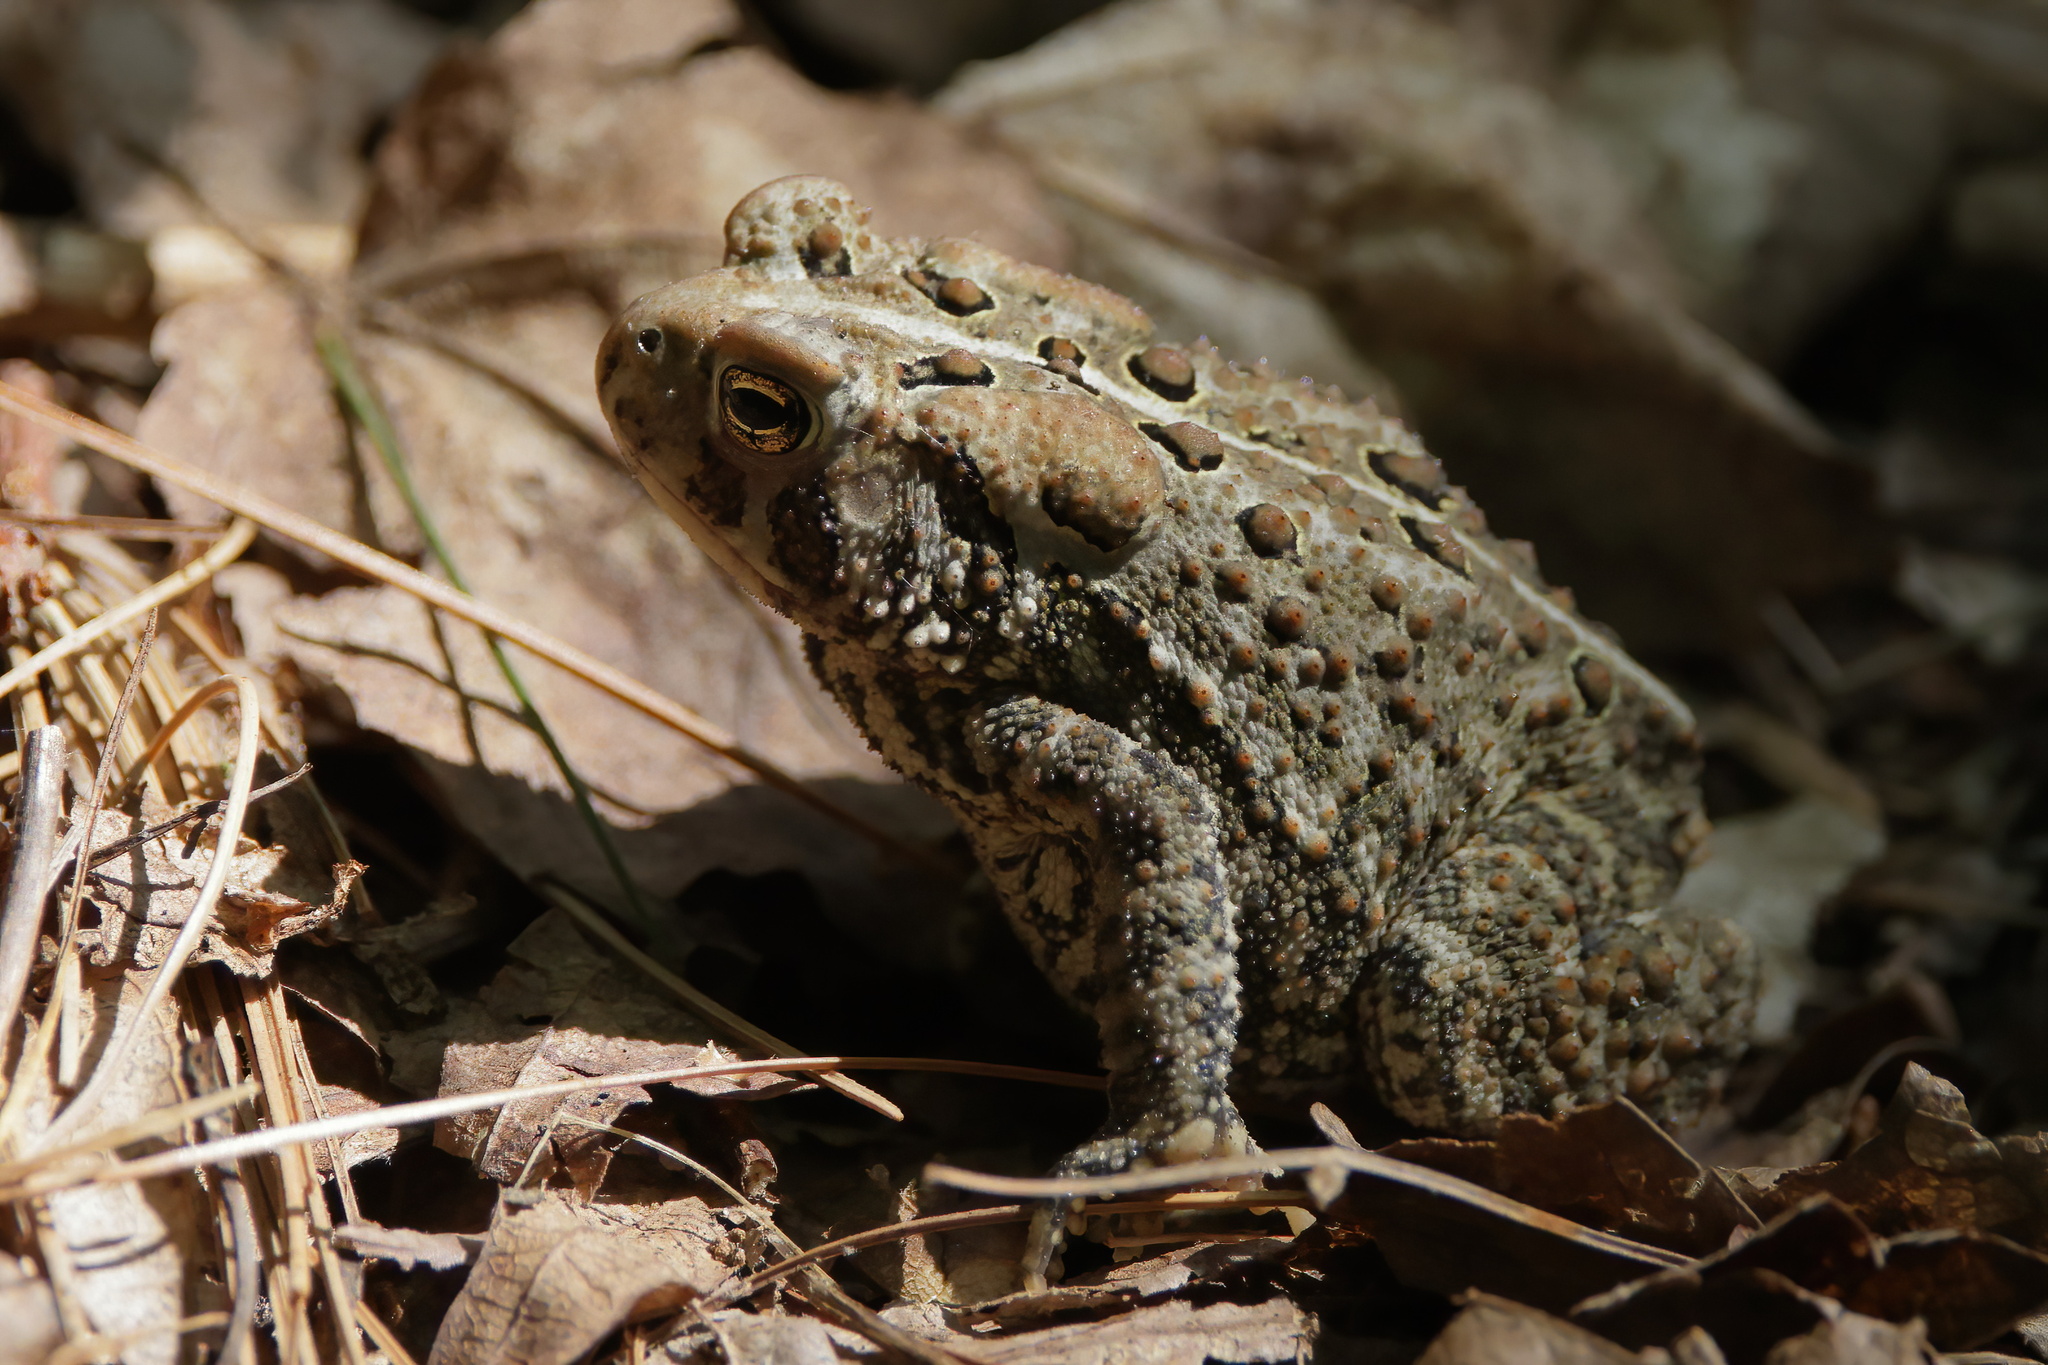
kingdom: Animalia
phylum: Chordata
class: Amphibia
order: Anura
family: Bufonidae
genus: Anaxyrus
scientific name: Anaxyrus americanus
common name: American toad
